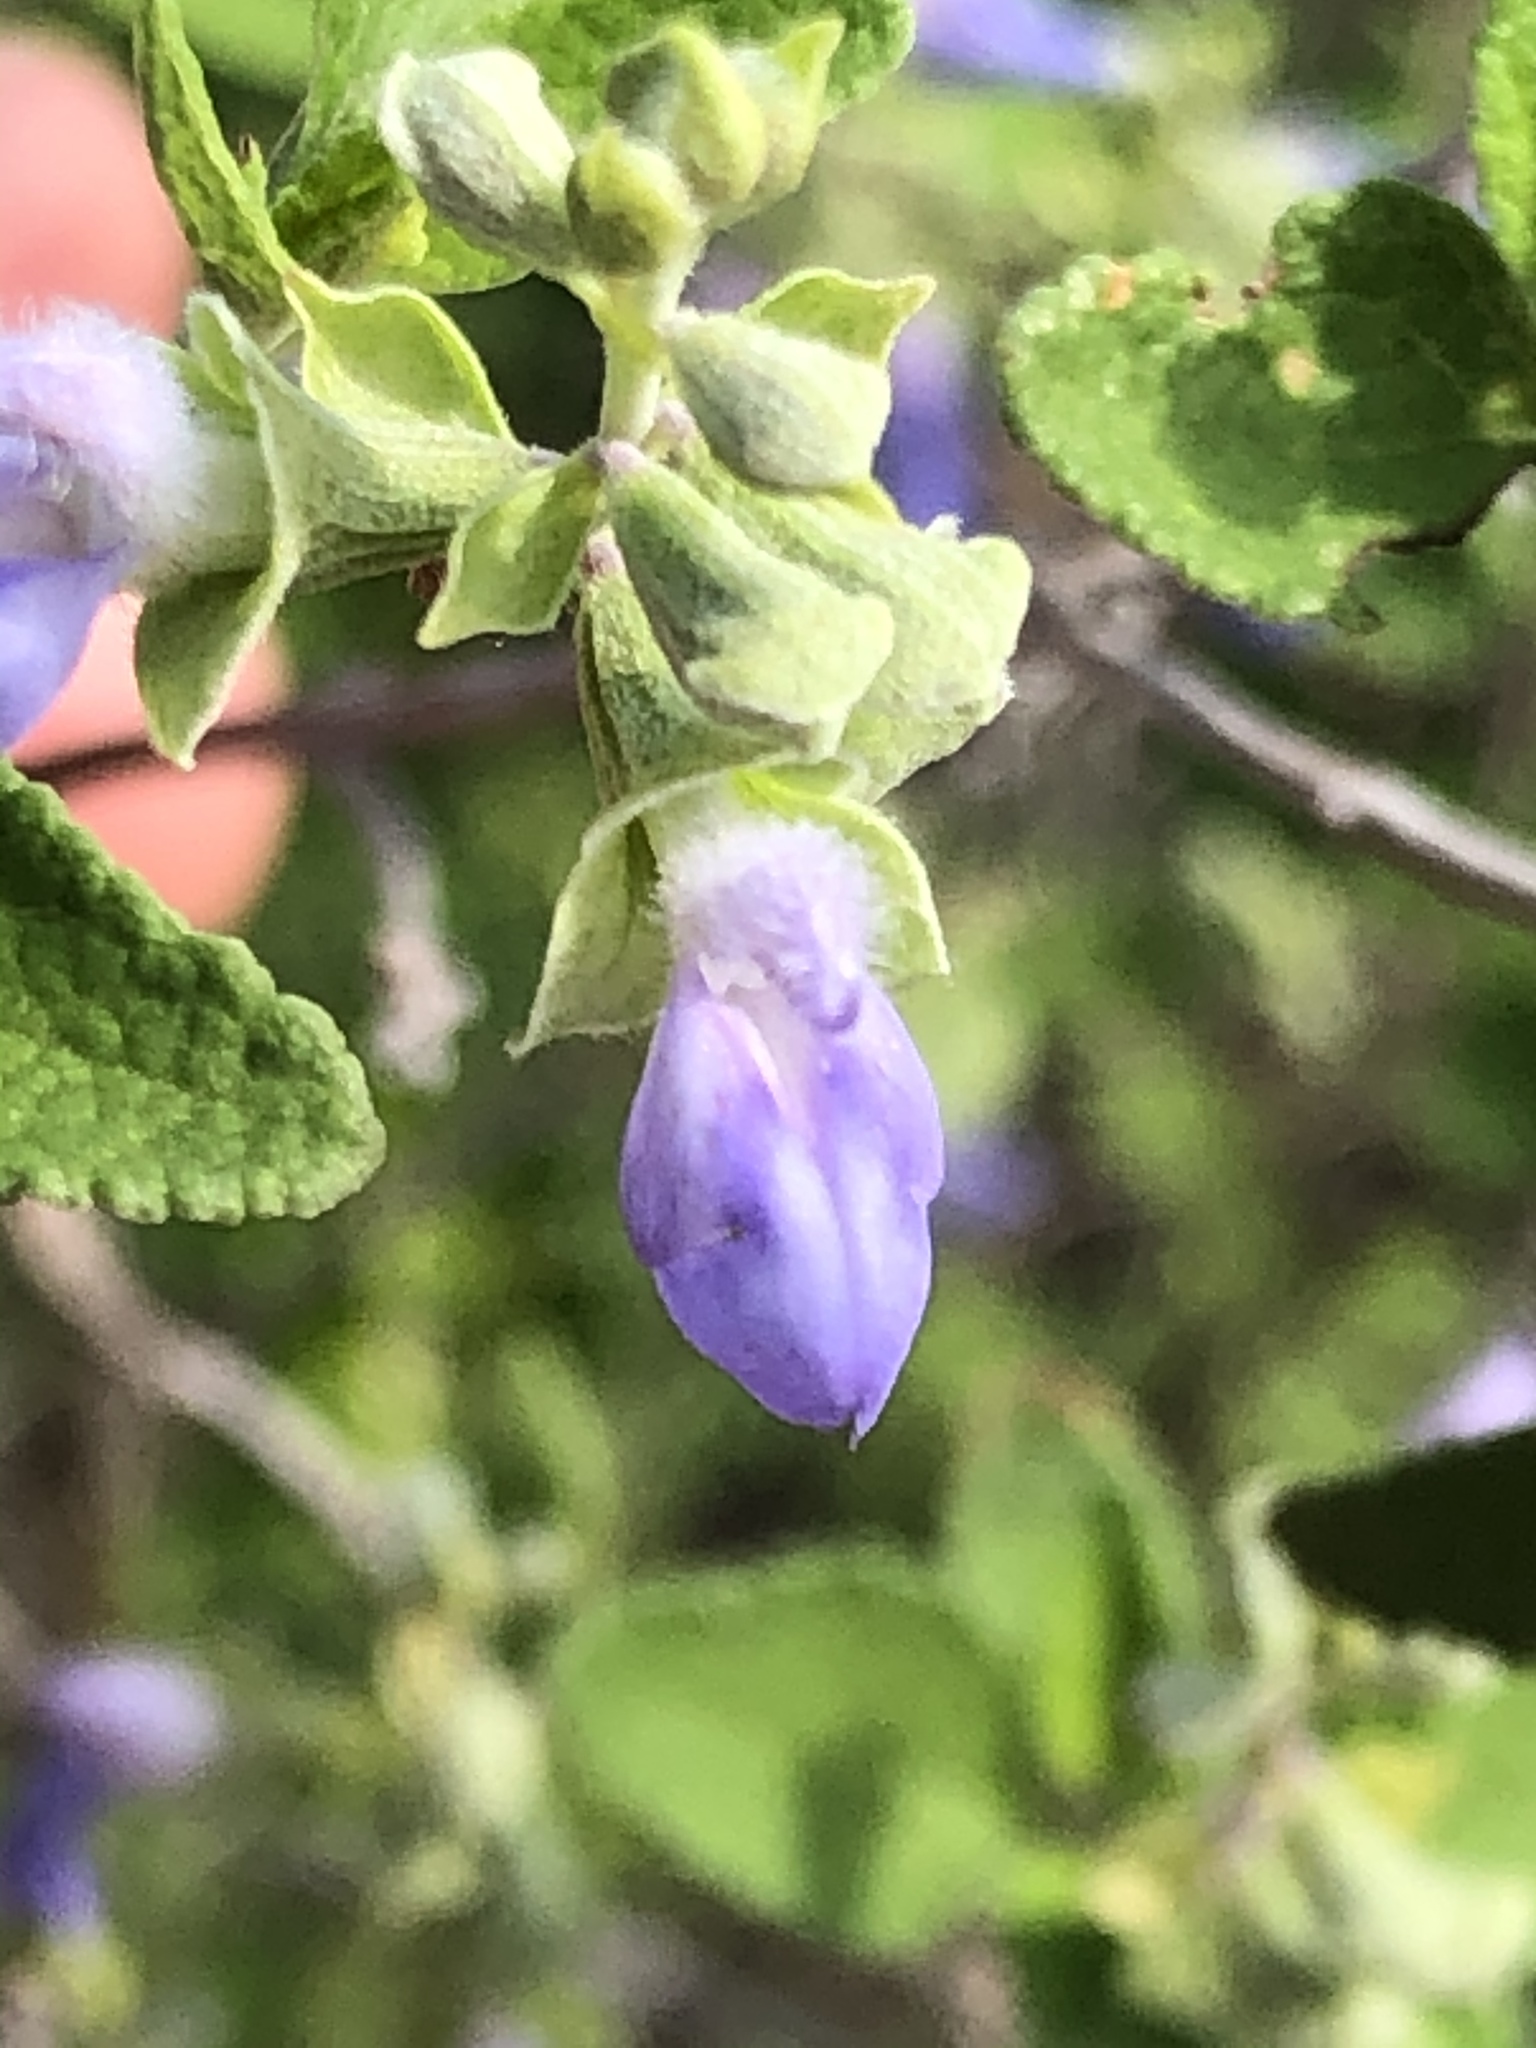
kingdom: Plantae
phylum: Tracheophyta
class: Magnoliopsida
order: Lamiales
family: Lamiaceae
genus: Salvia
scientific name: Salvia ballotiflora
